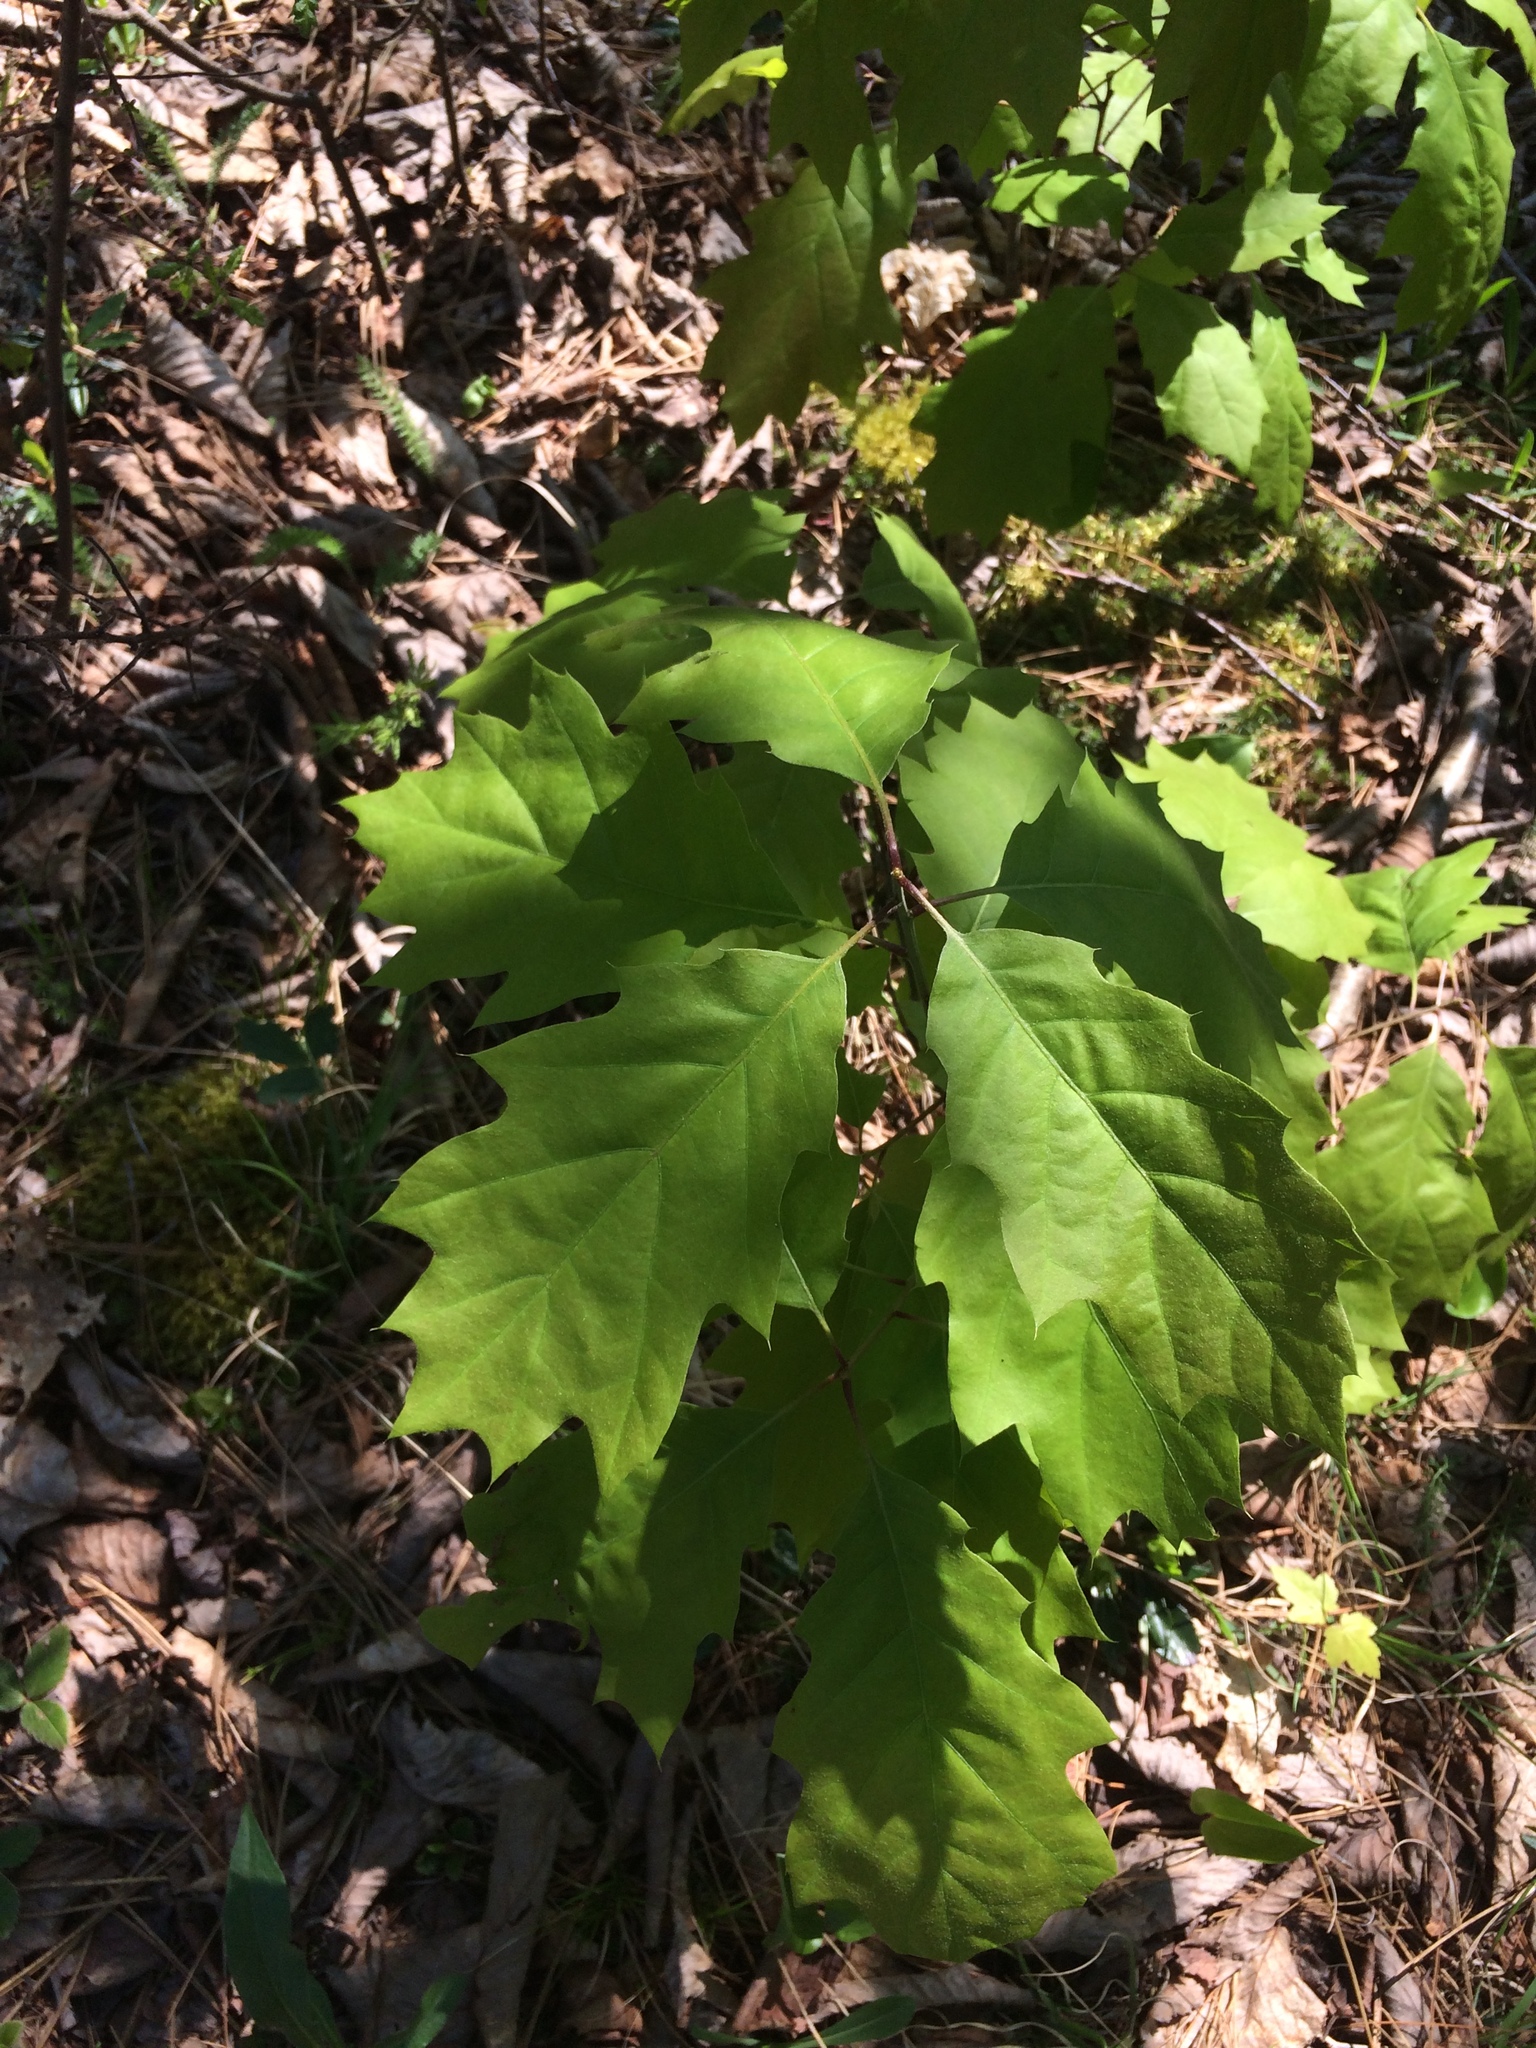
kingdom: Plantae
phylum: Tracheophyta
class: Magnoliopsida
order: Fagales
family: Fagaceae
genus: Quercus
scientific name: Quercus rubra
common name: Red oak
